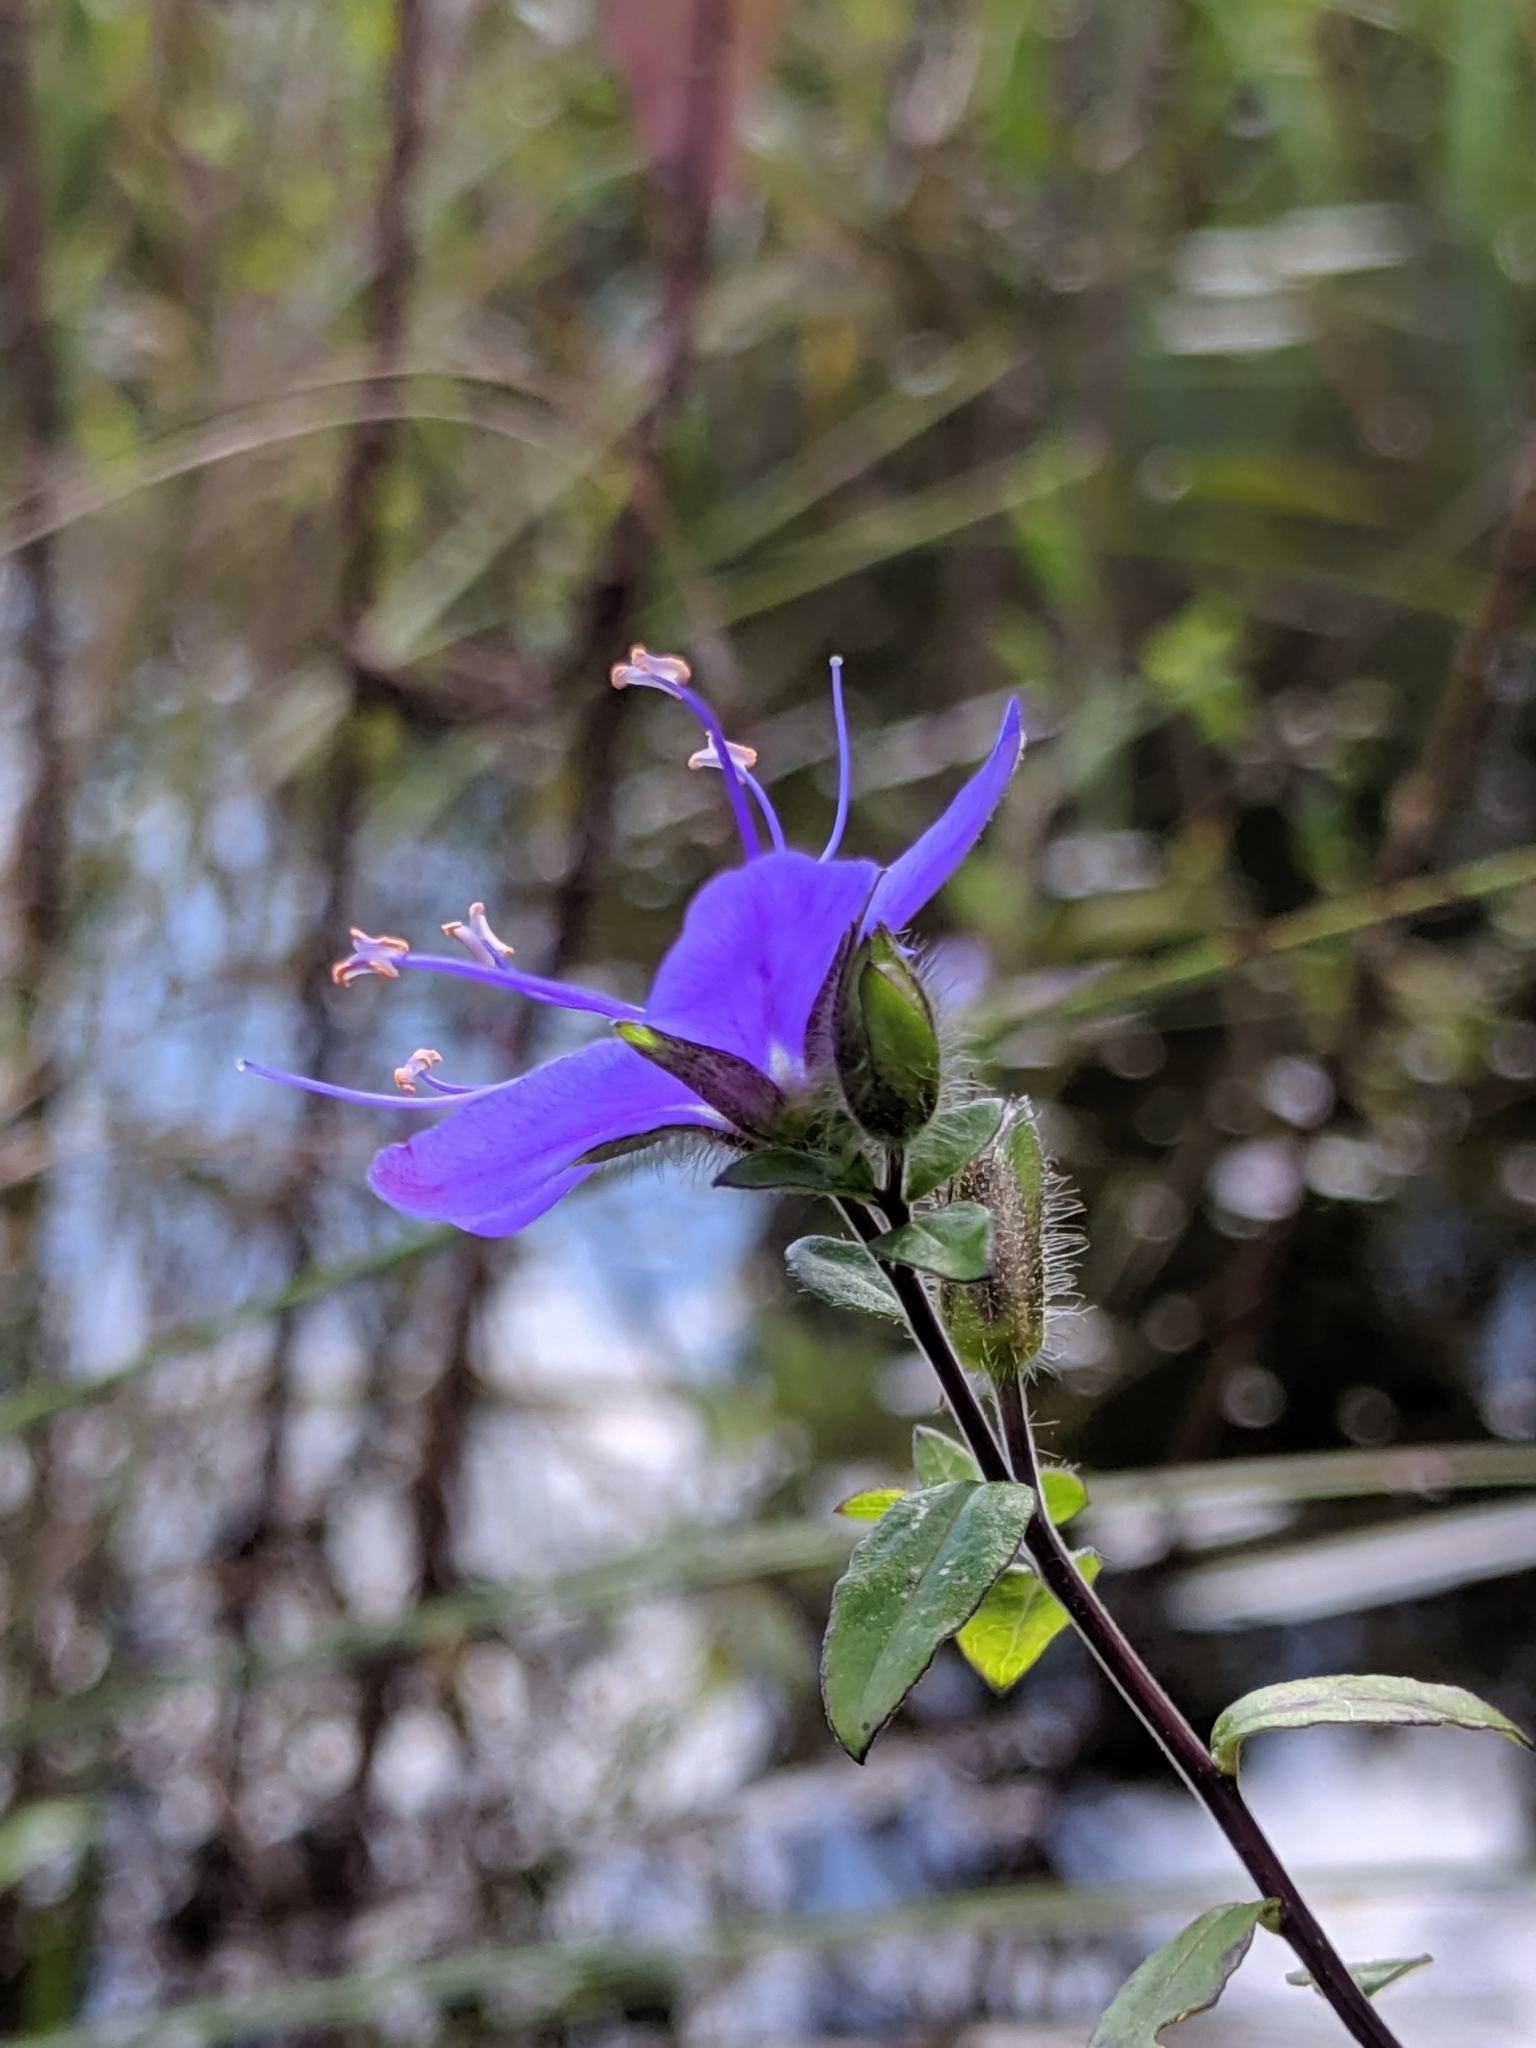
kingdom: Plantae
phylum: Tracheophyta
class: Magnoliopsida
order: Solanales
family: Hydroleaceae
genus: Hydrolea
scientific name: Hydrolea corymbosa
